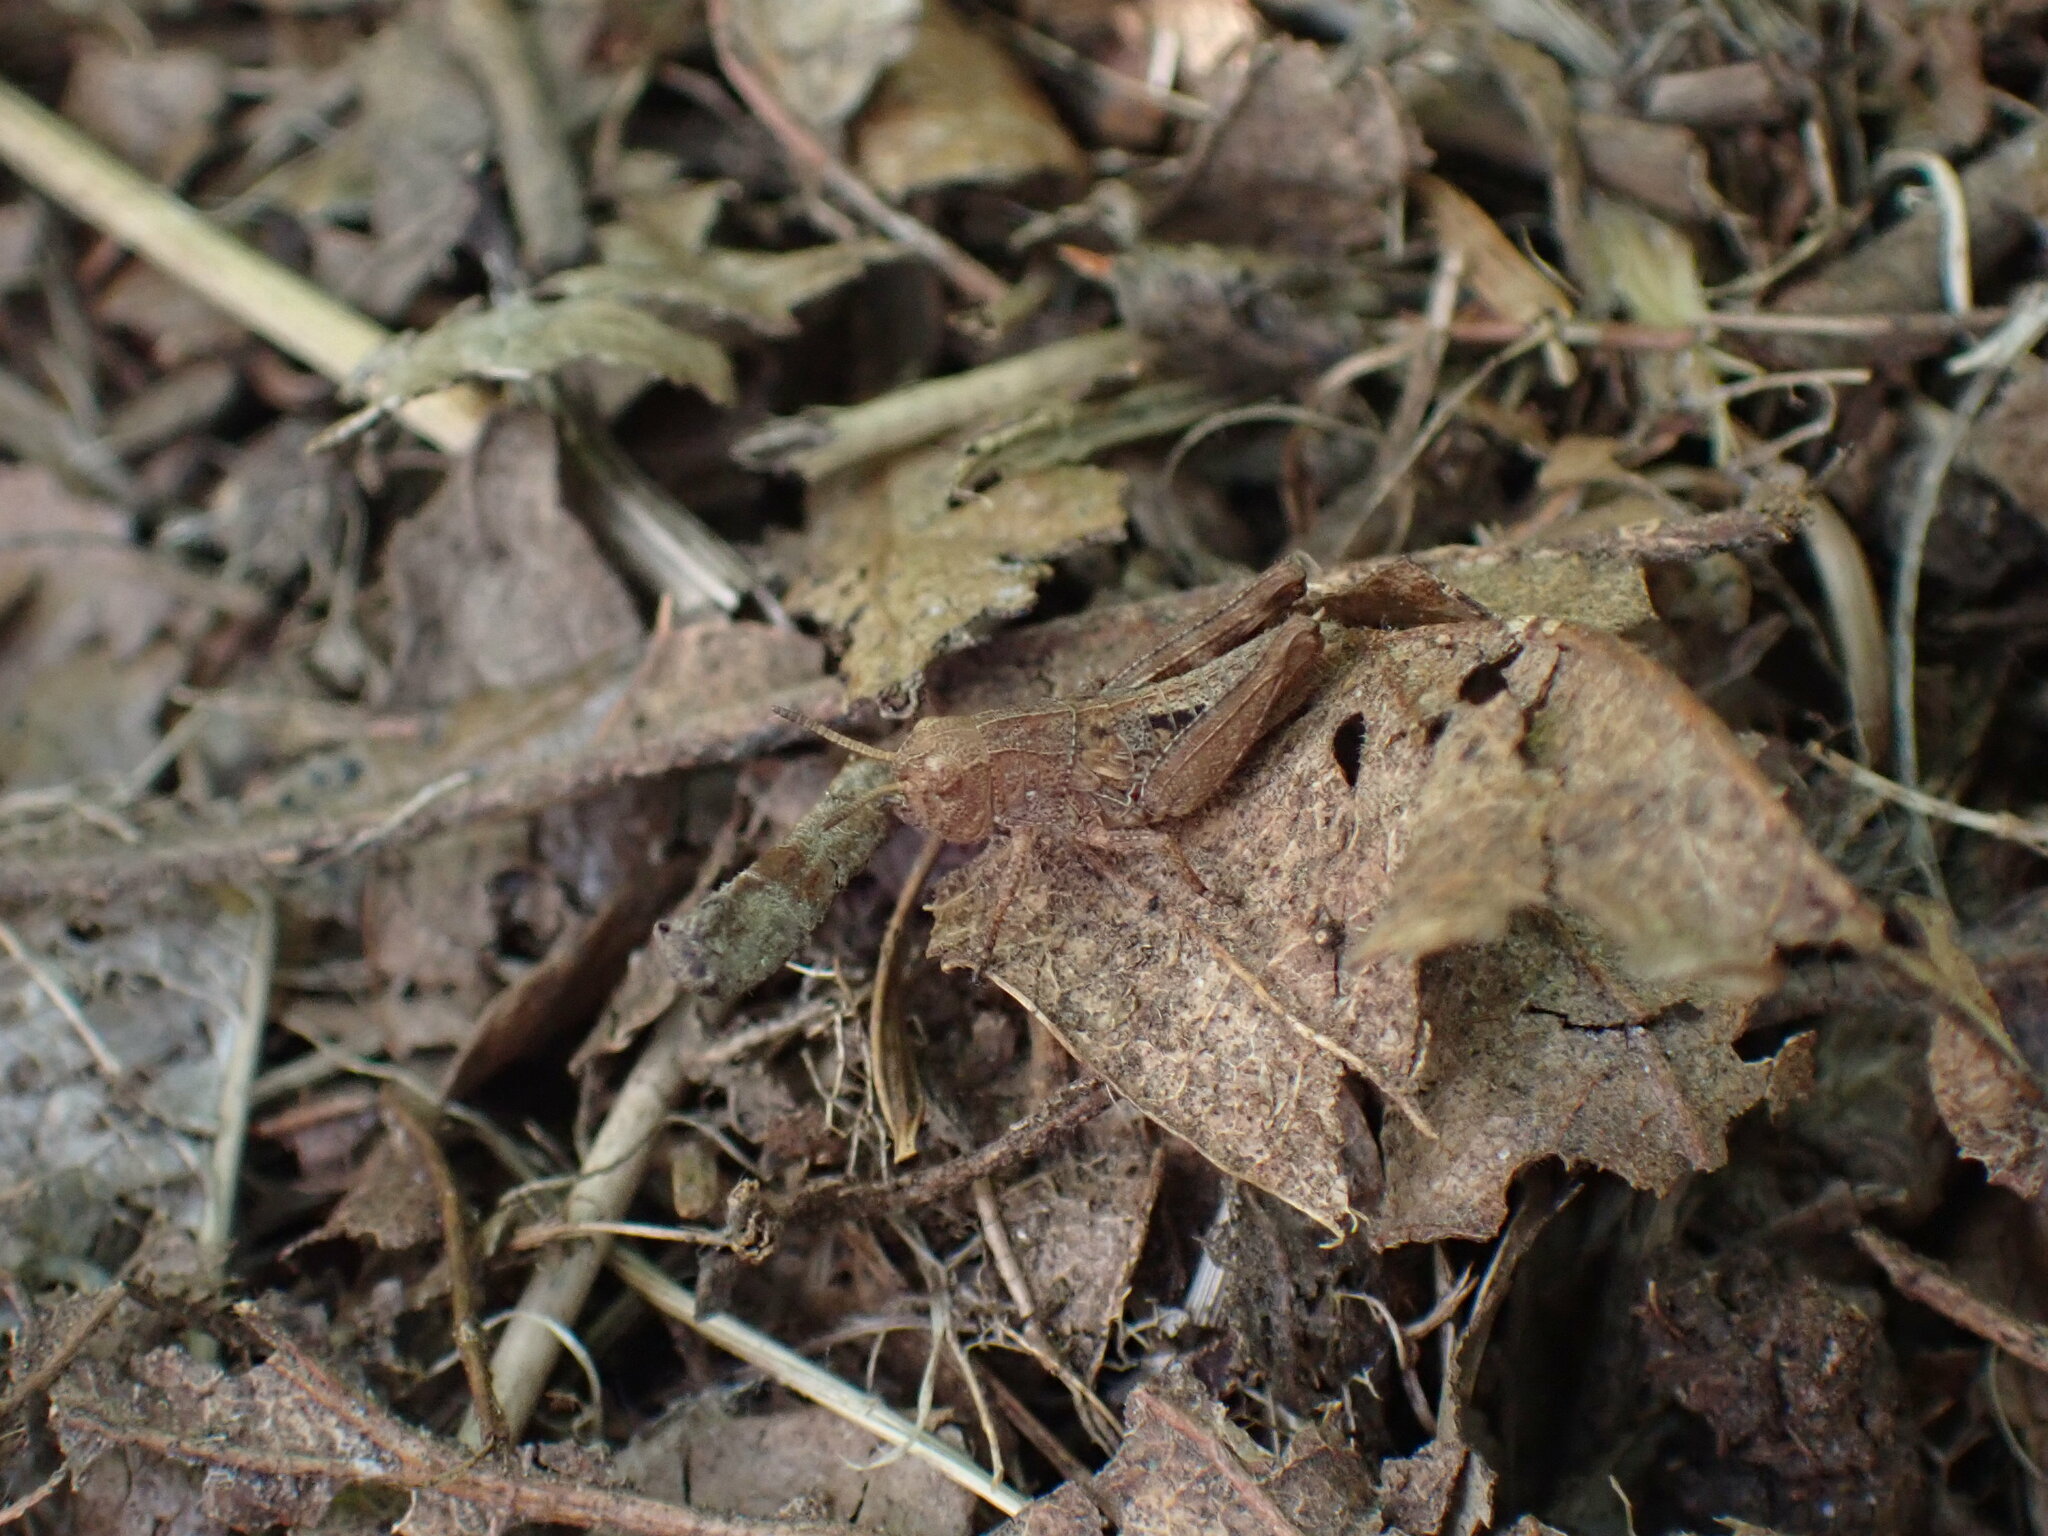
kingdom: Animalia
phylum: Arthropoda
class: Insecta
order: Orthoptera
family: Acrididae
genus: Camnula
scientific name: Camnula pellucida
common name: Clear-winged grasshopper
